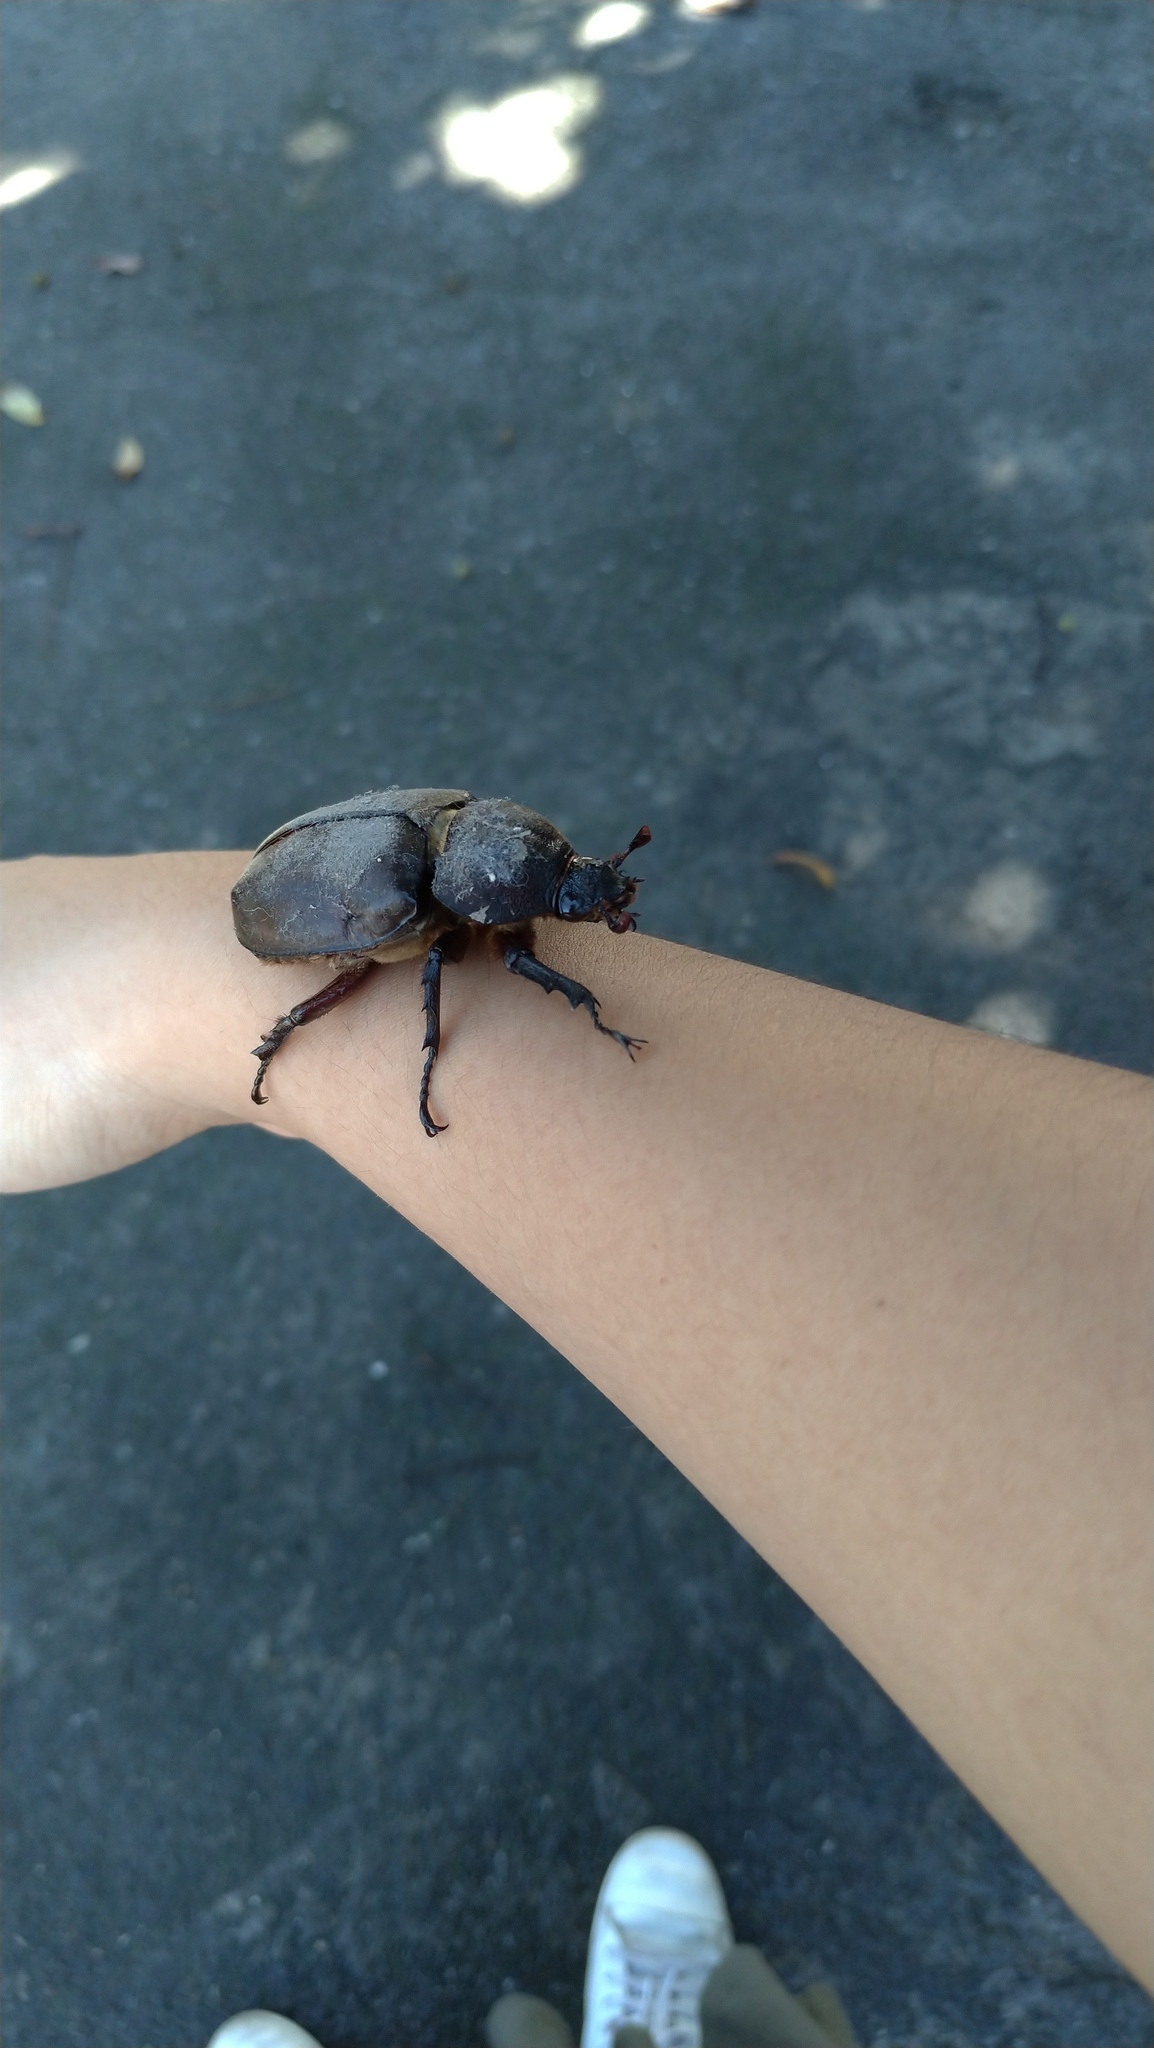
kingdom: Animalia
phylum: Arthropoda
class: Insecta
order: Coleoptera
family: Scarabaeidae
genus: Trypoxylus
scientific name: Trypoxylus dichotomus
